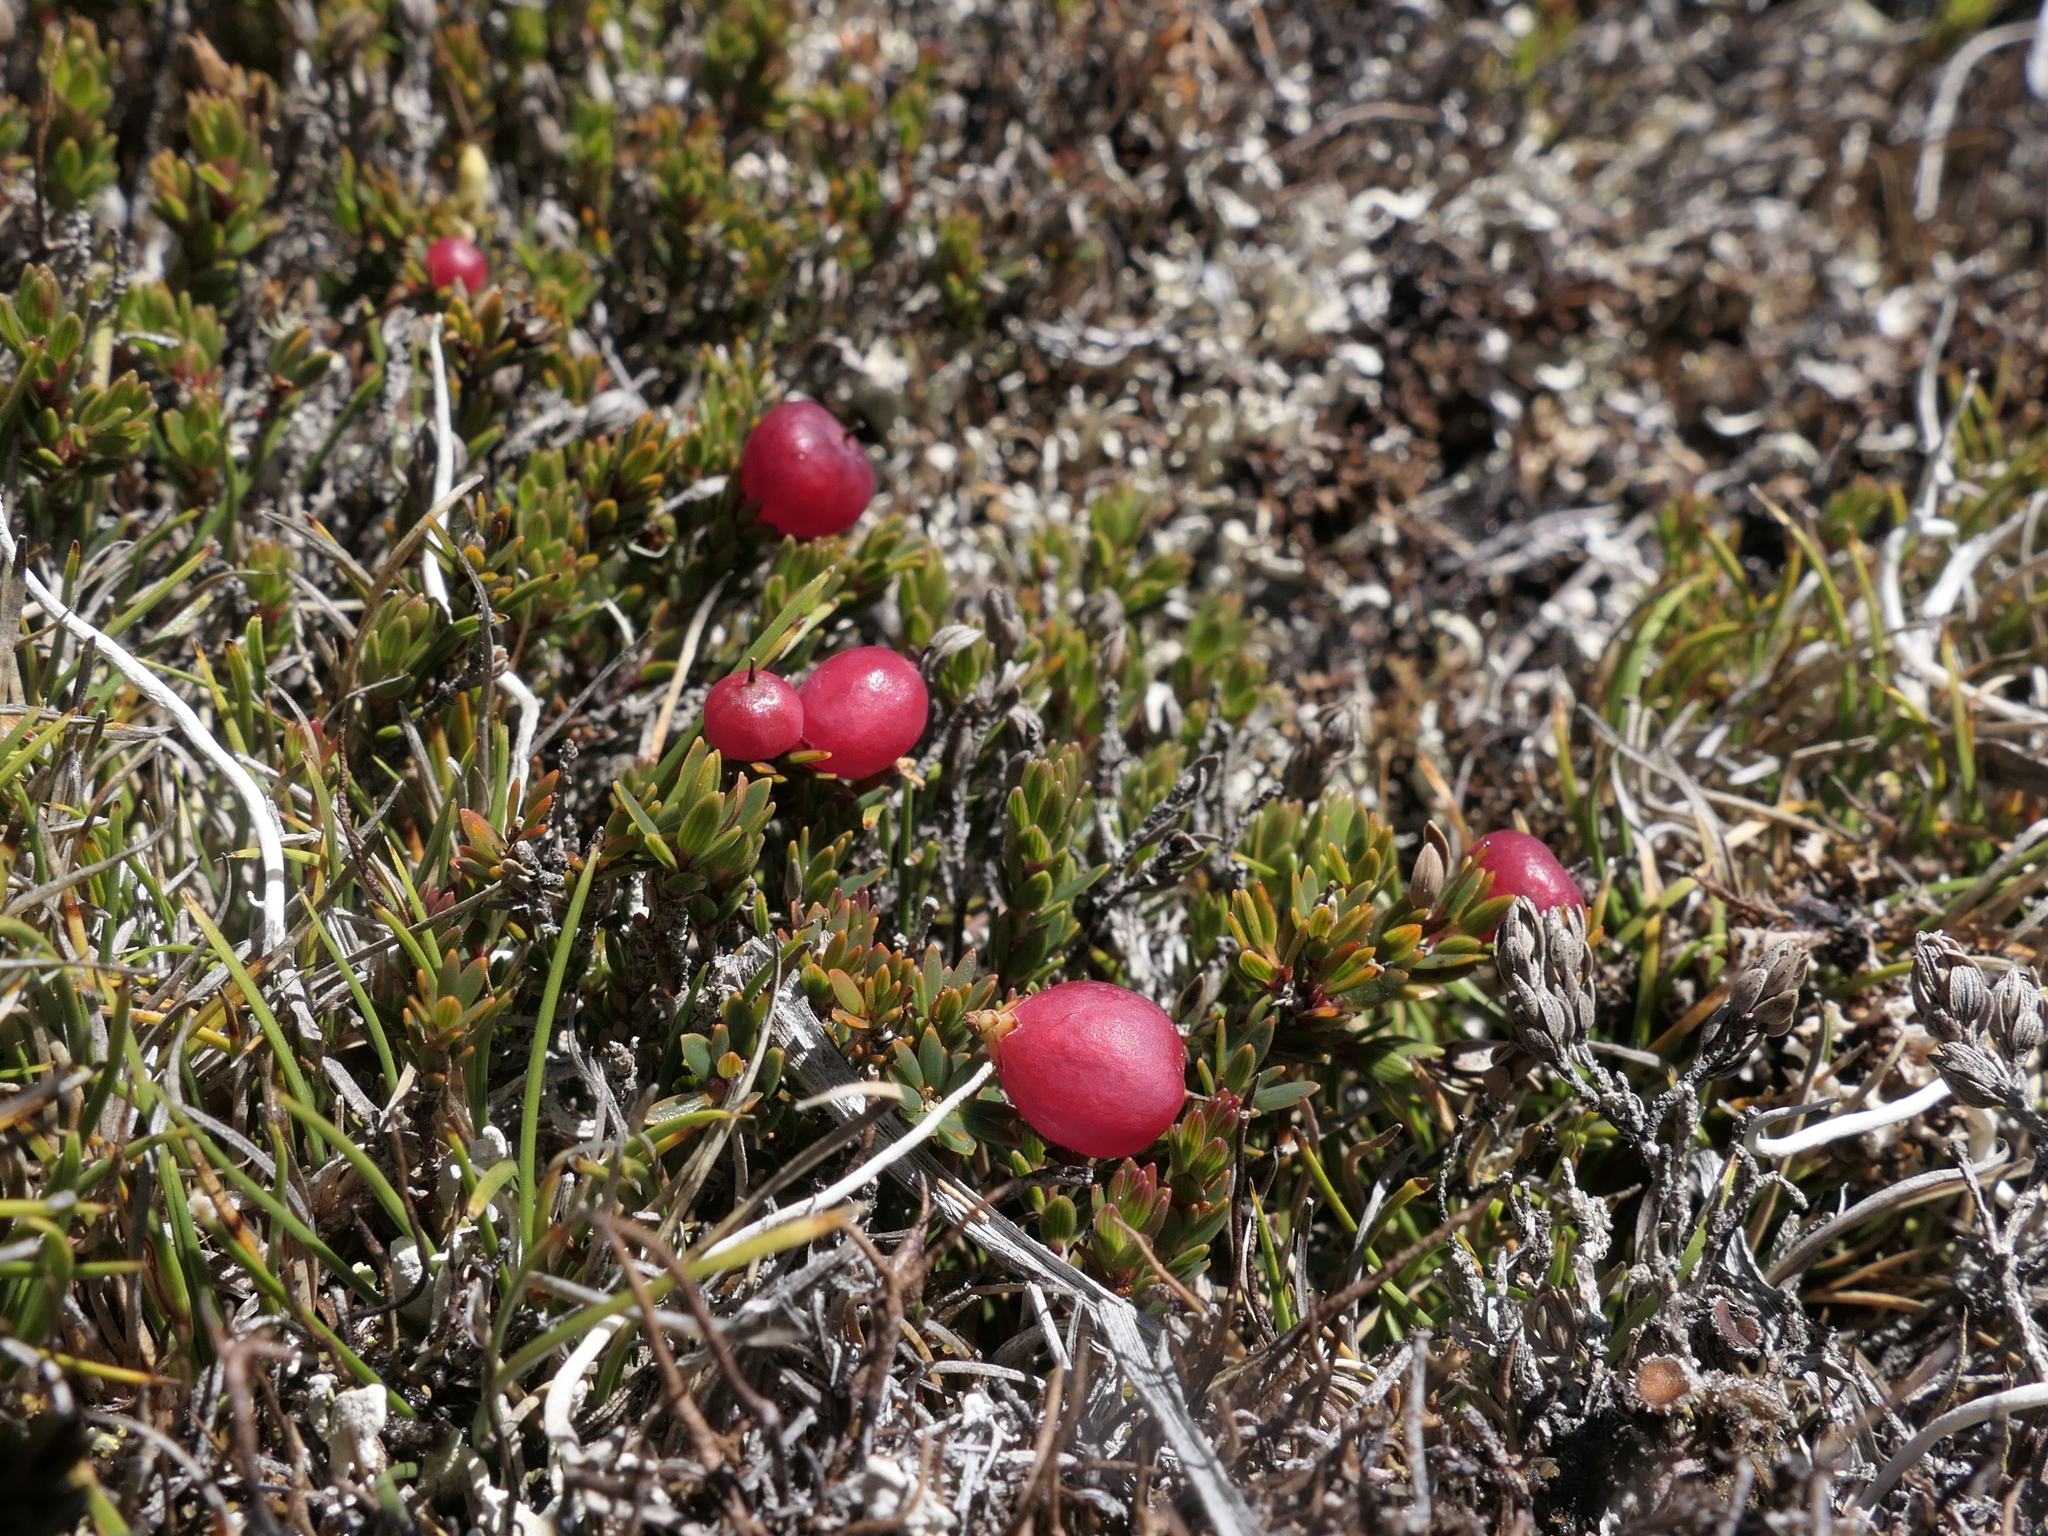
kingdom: Plantae
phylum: Tracheophyta
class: Magnoliopsida
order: Ericales
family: Ericaceae
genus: Pentachondra
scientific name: Pentachondra pumila
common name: Carpet-heath
